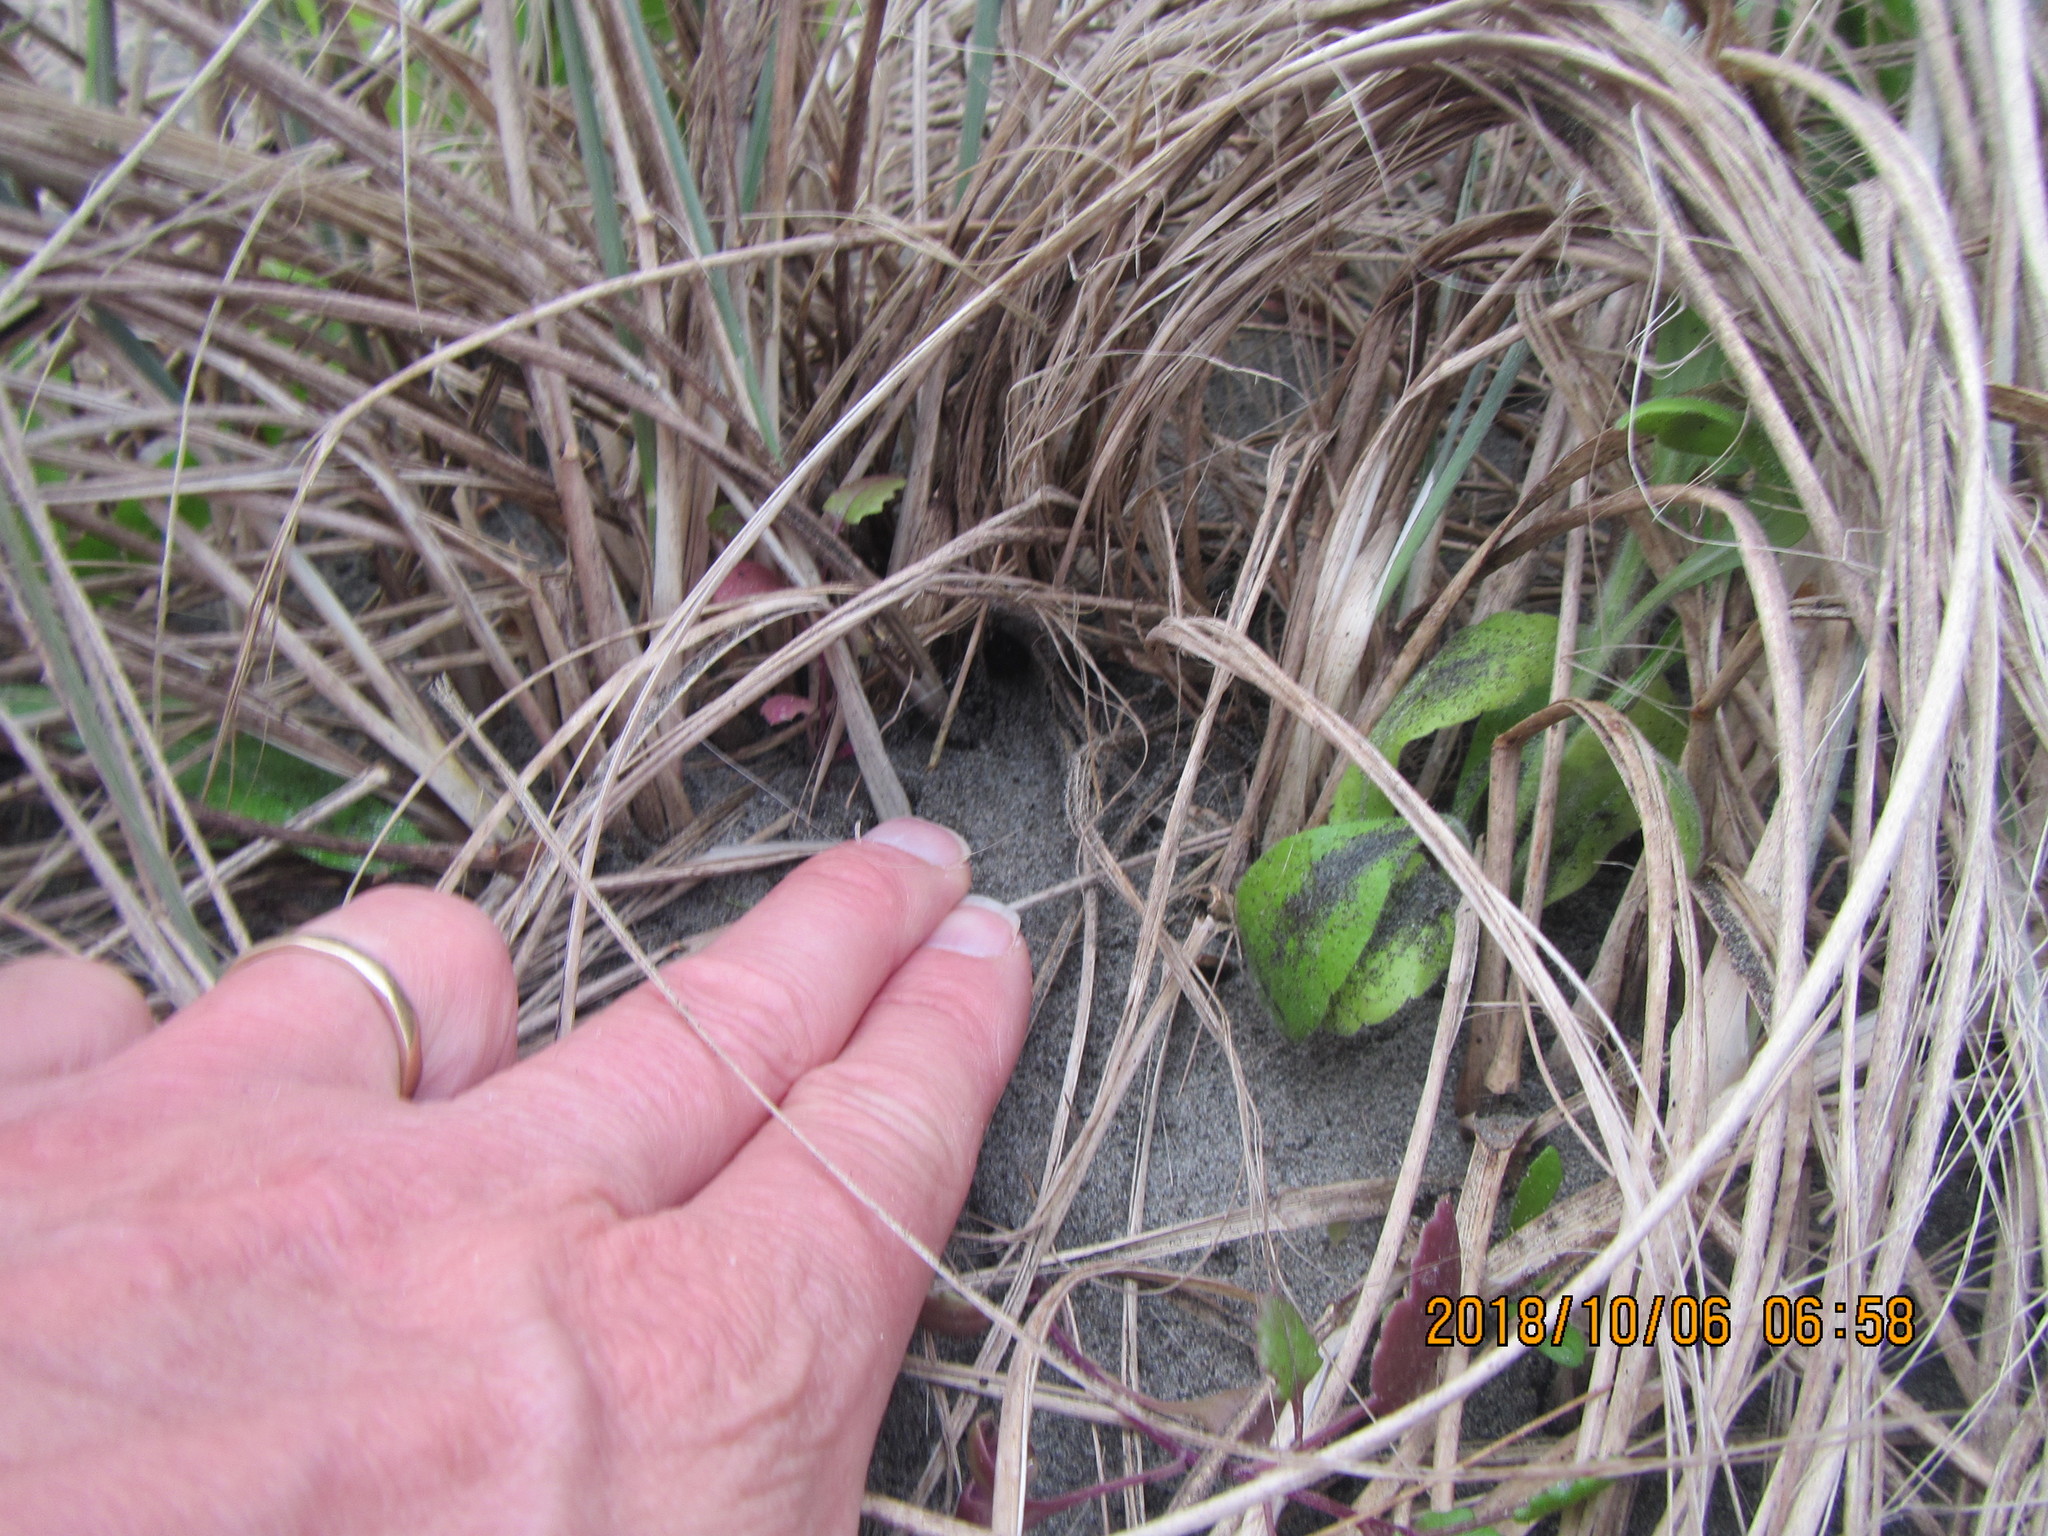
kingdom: Animalia
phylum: Arthropoda
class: Arachnida
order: Araneae
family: Theridiidae
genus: Latrodectus
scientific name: Latrodectus katipo
